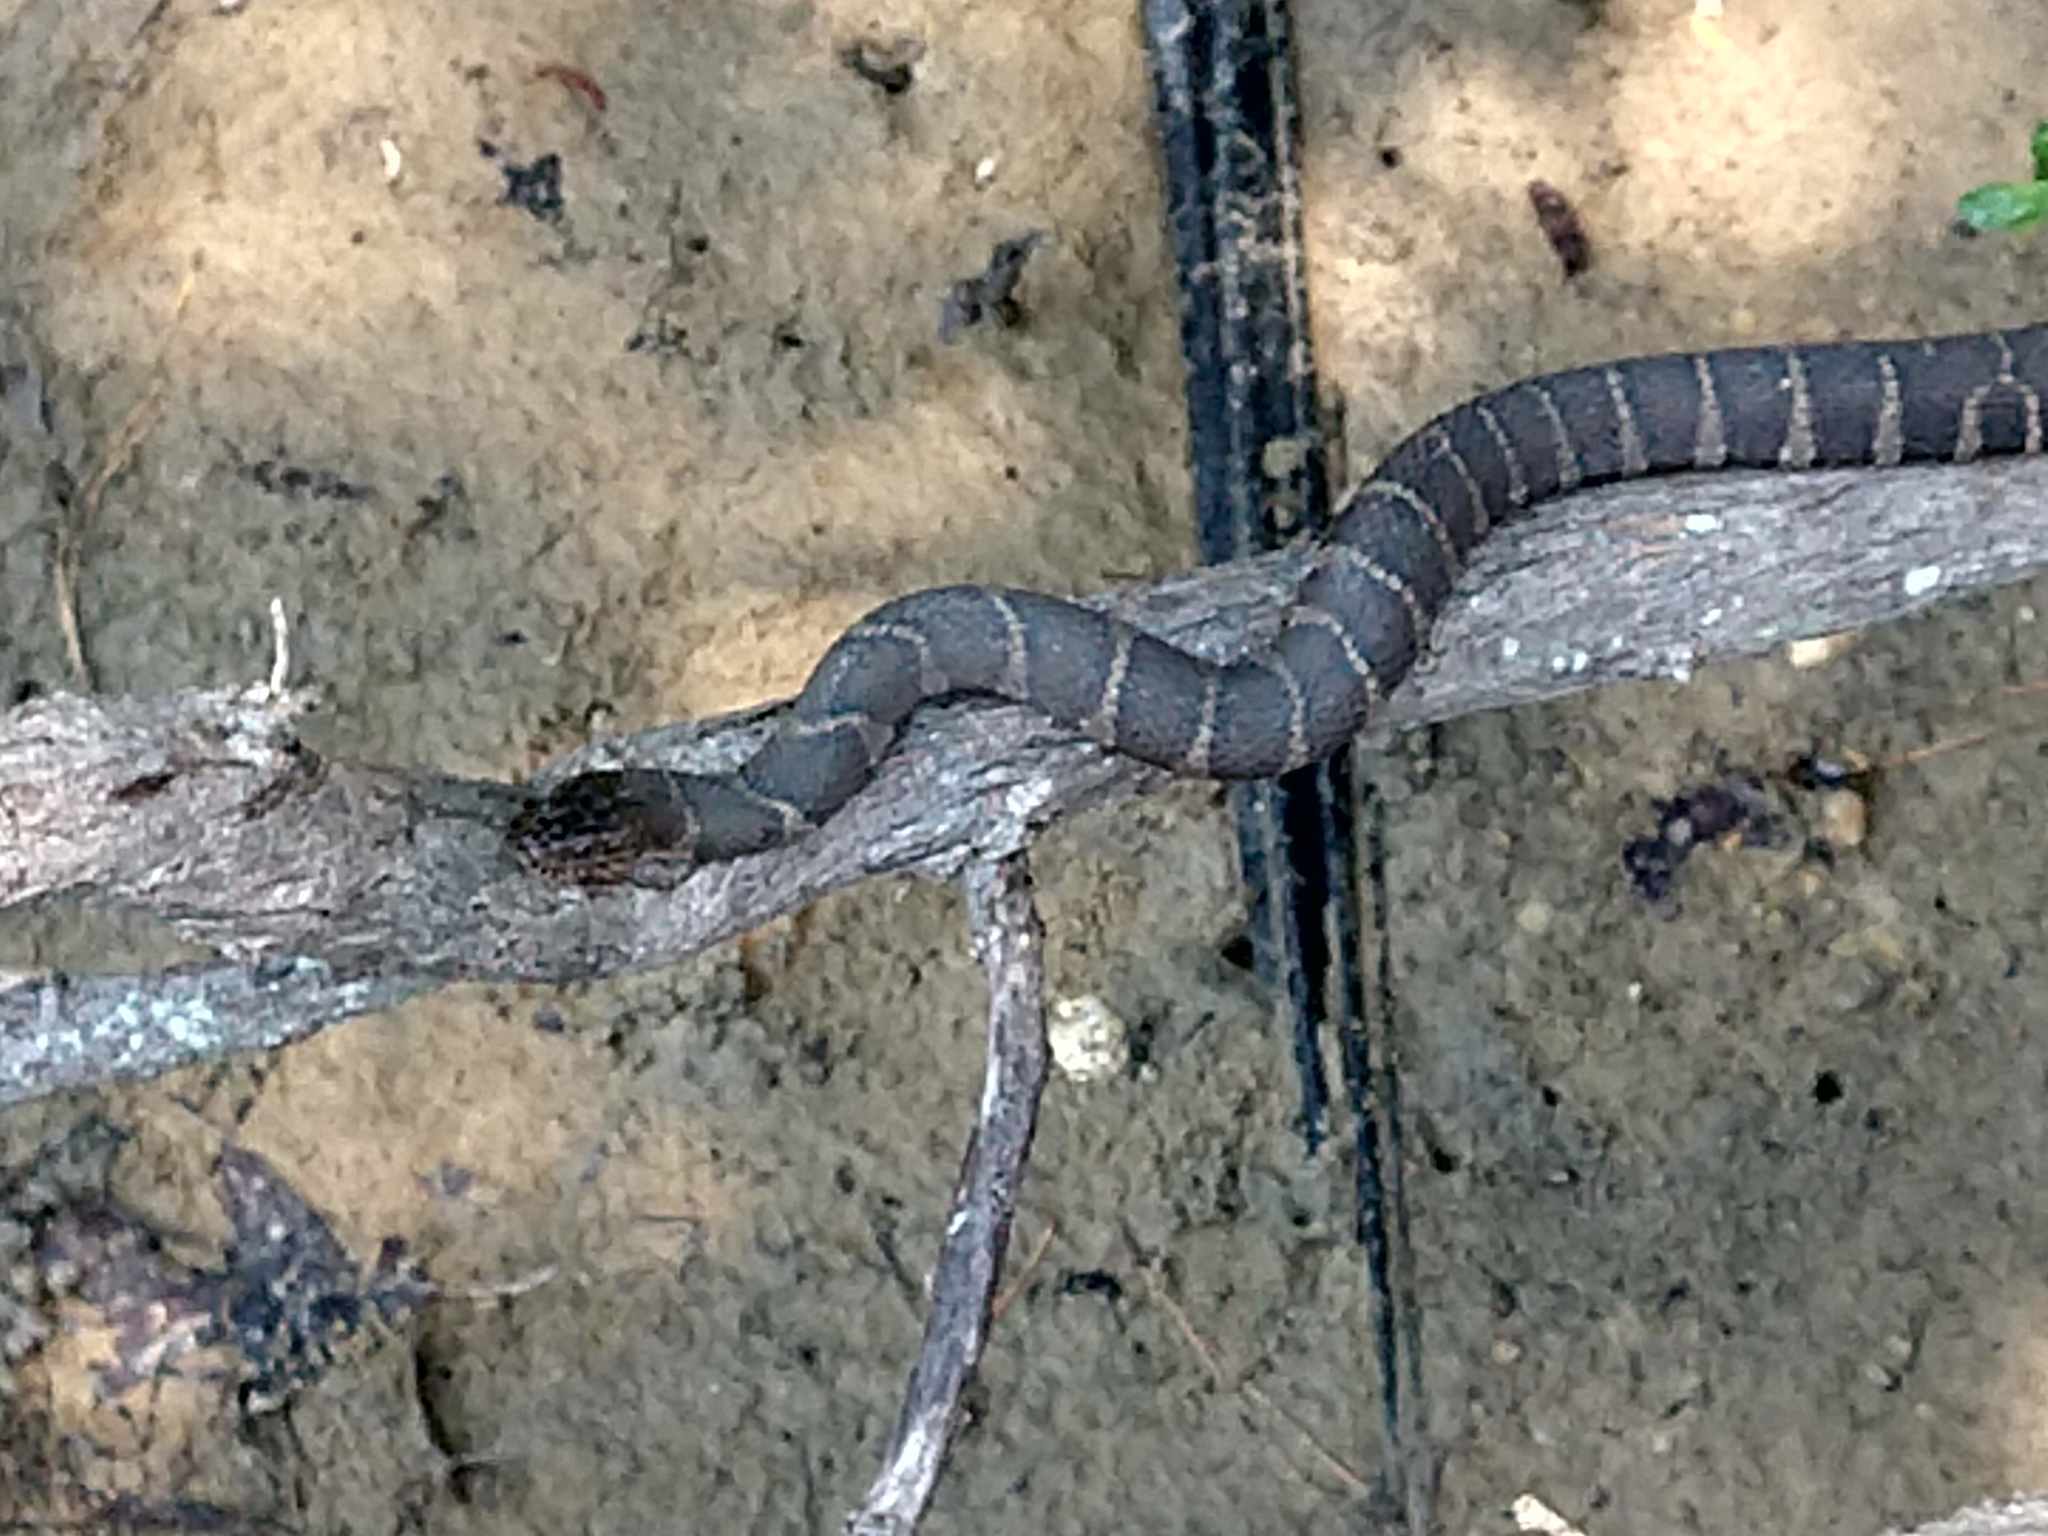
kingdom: Animalia
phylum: Chordata
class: Squamata
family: Colubridae
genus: Nerodia
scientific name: Nerodia sipedon
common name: Northern water snake
